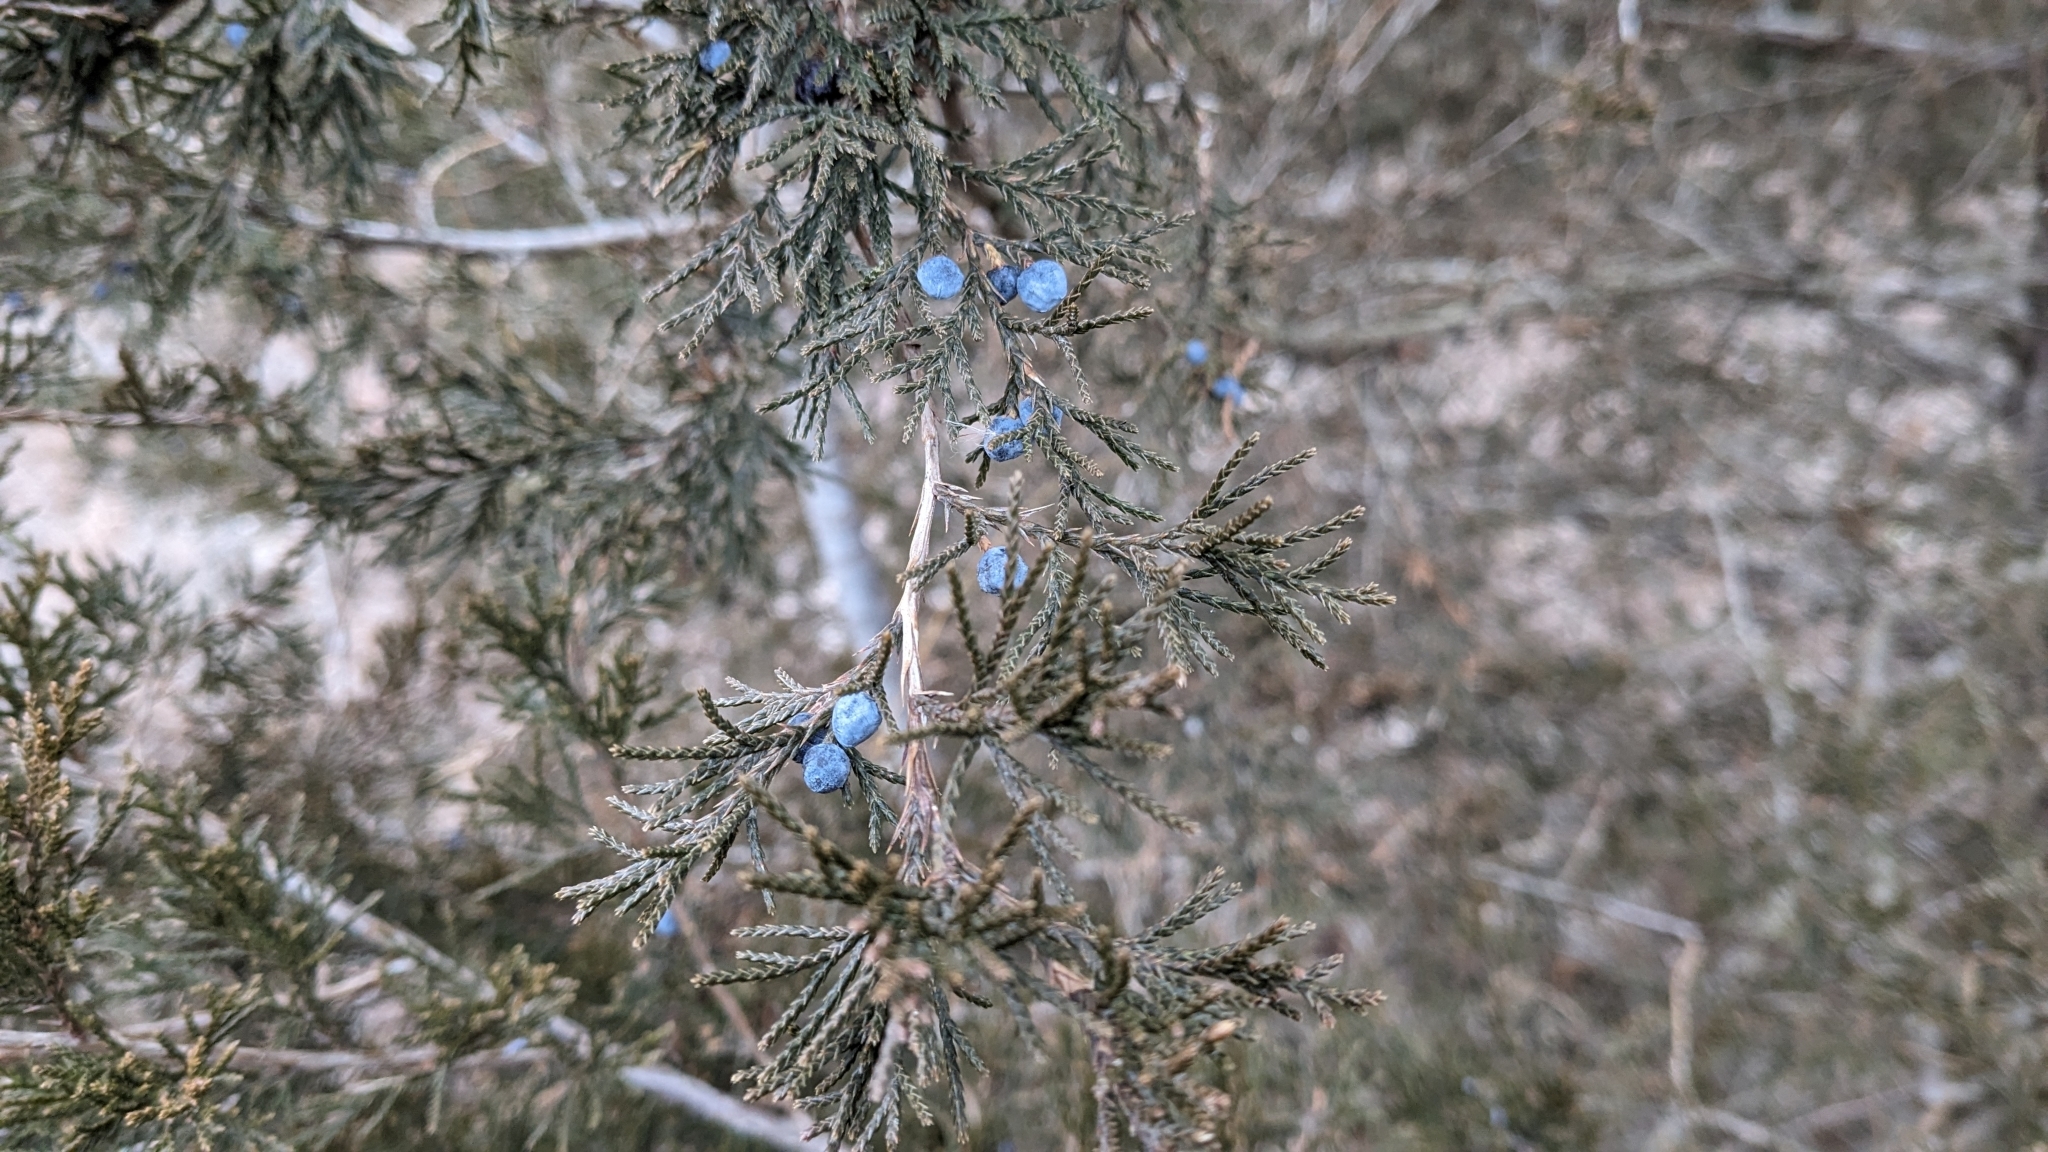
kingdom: Plantae
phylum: Tracheophyta
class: Pinopsida
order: Pinales
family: Cupressaceae
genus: Juniperus
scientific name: Juniperus virginiana
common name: Red juniper
